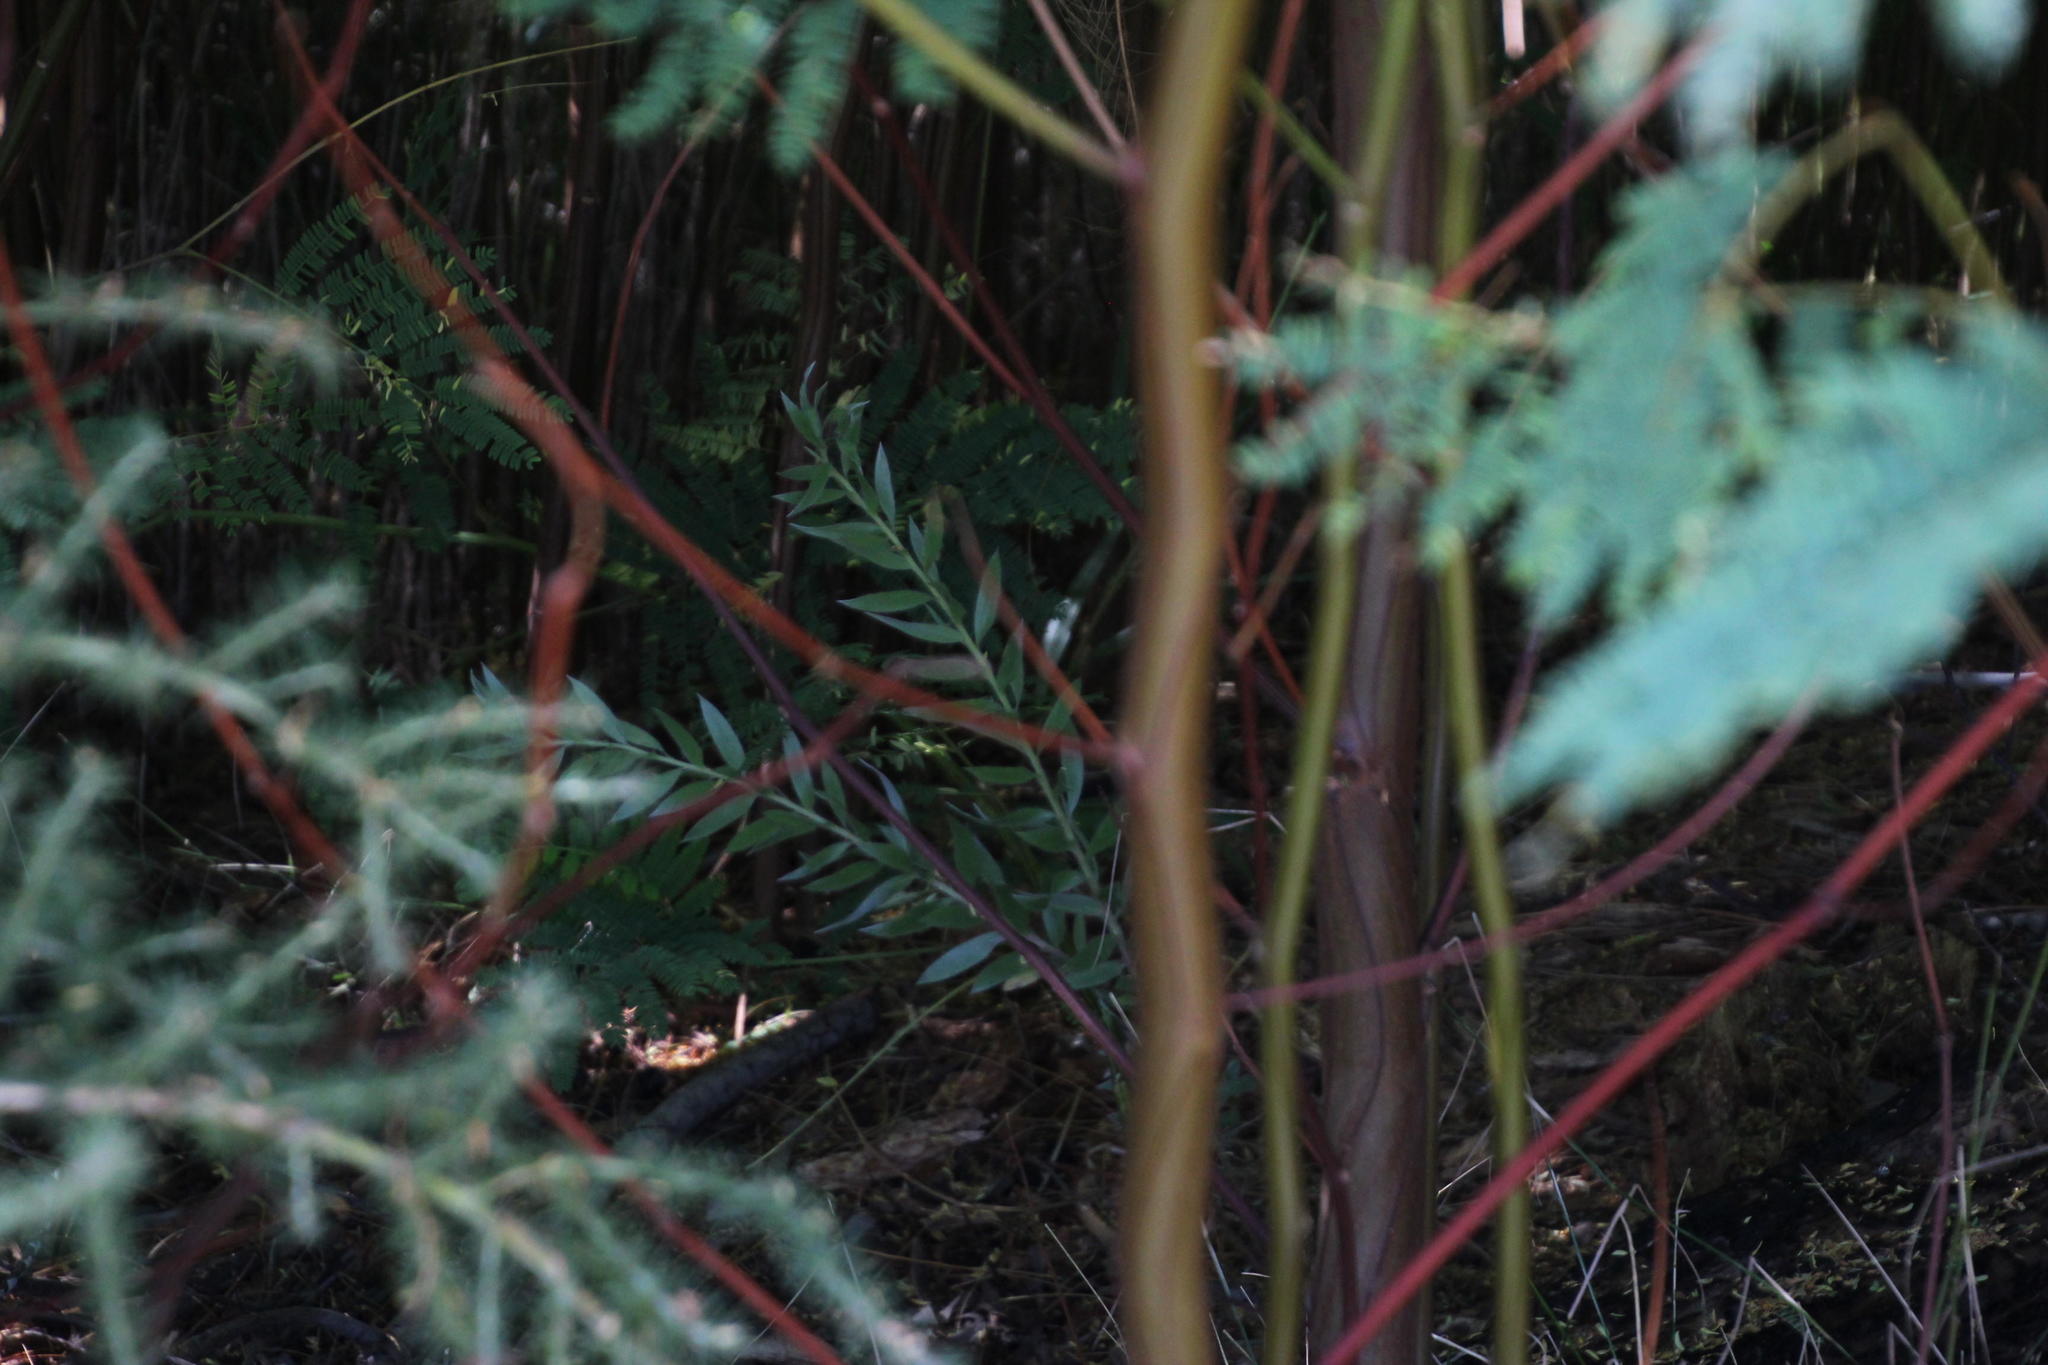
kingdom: Plantae
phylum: Tracheophyta
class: Magnoliopsida
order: Proteales
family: Proteaceae
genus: Leucadendron
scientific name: Leucadendron argenteum
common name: Cape silver tree
